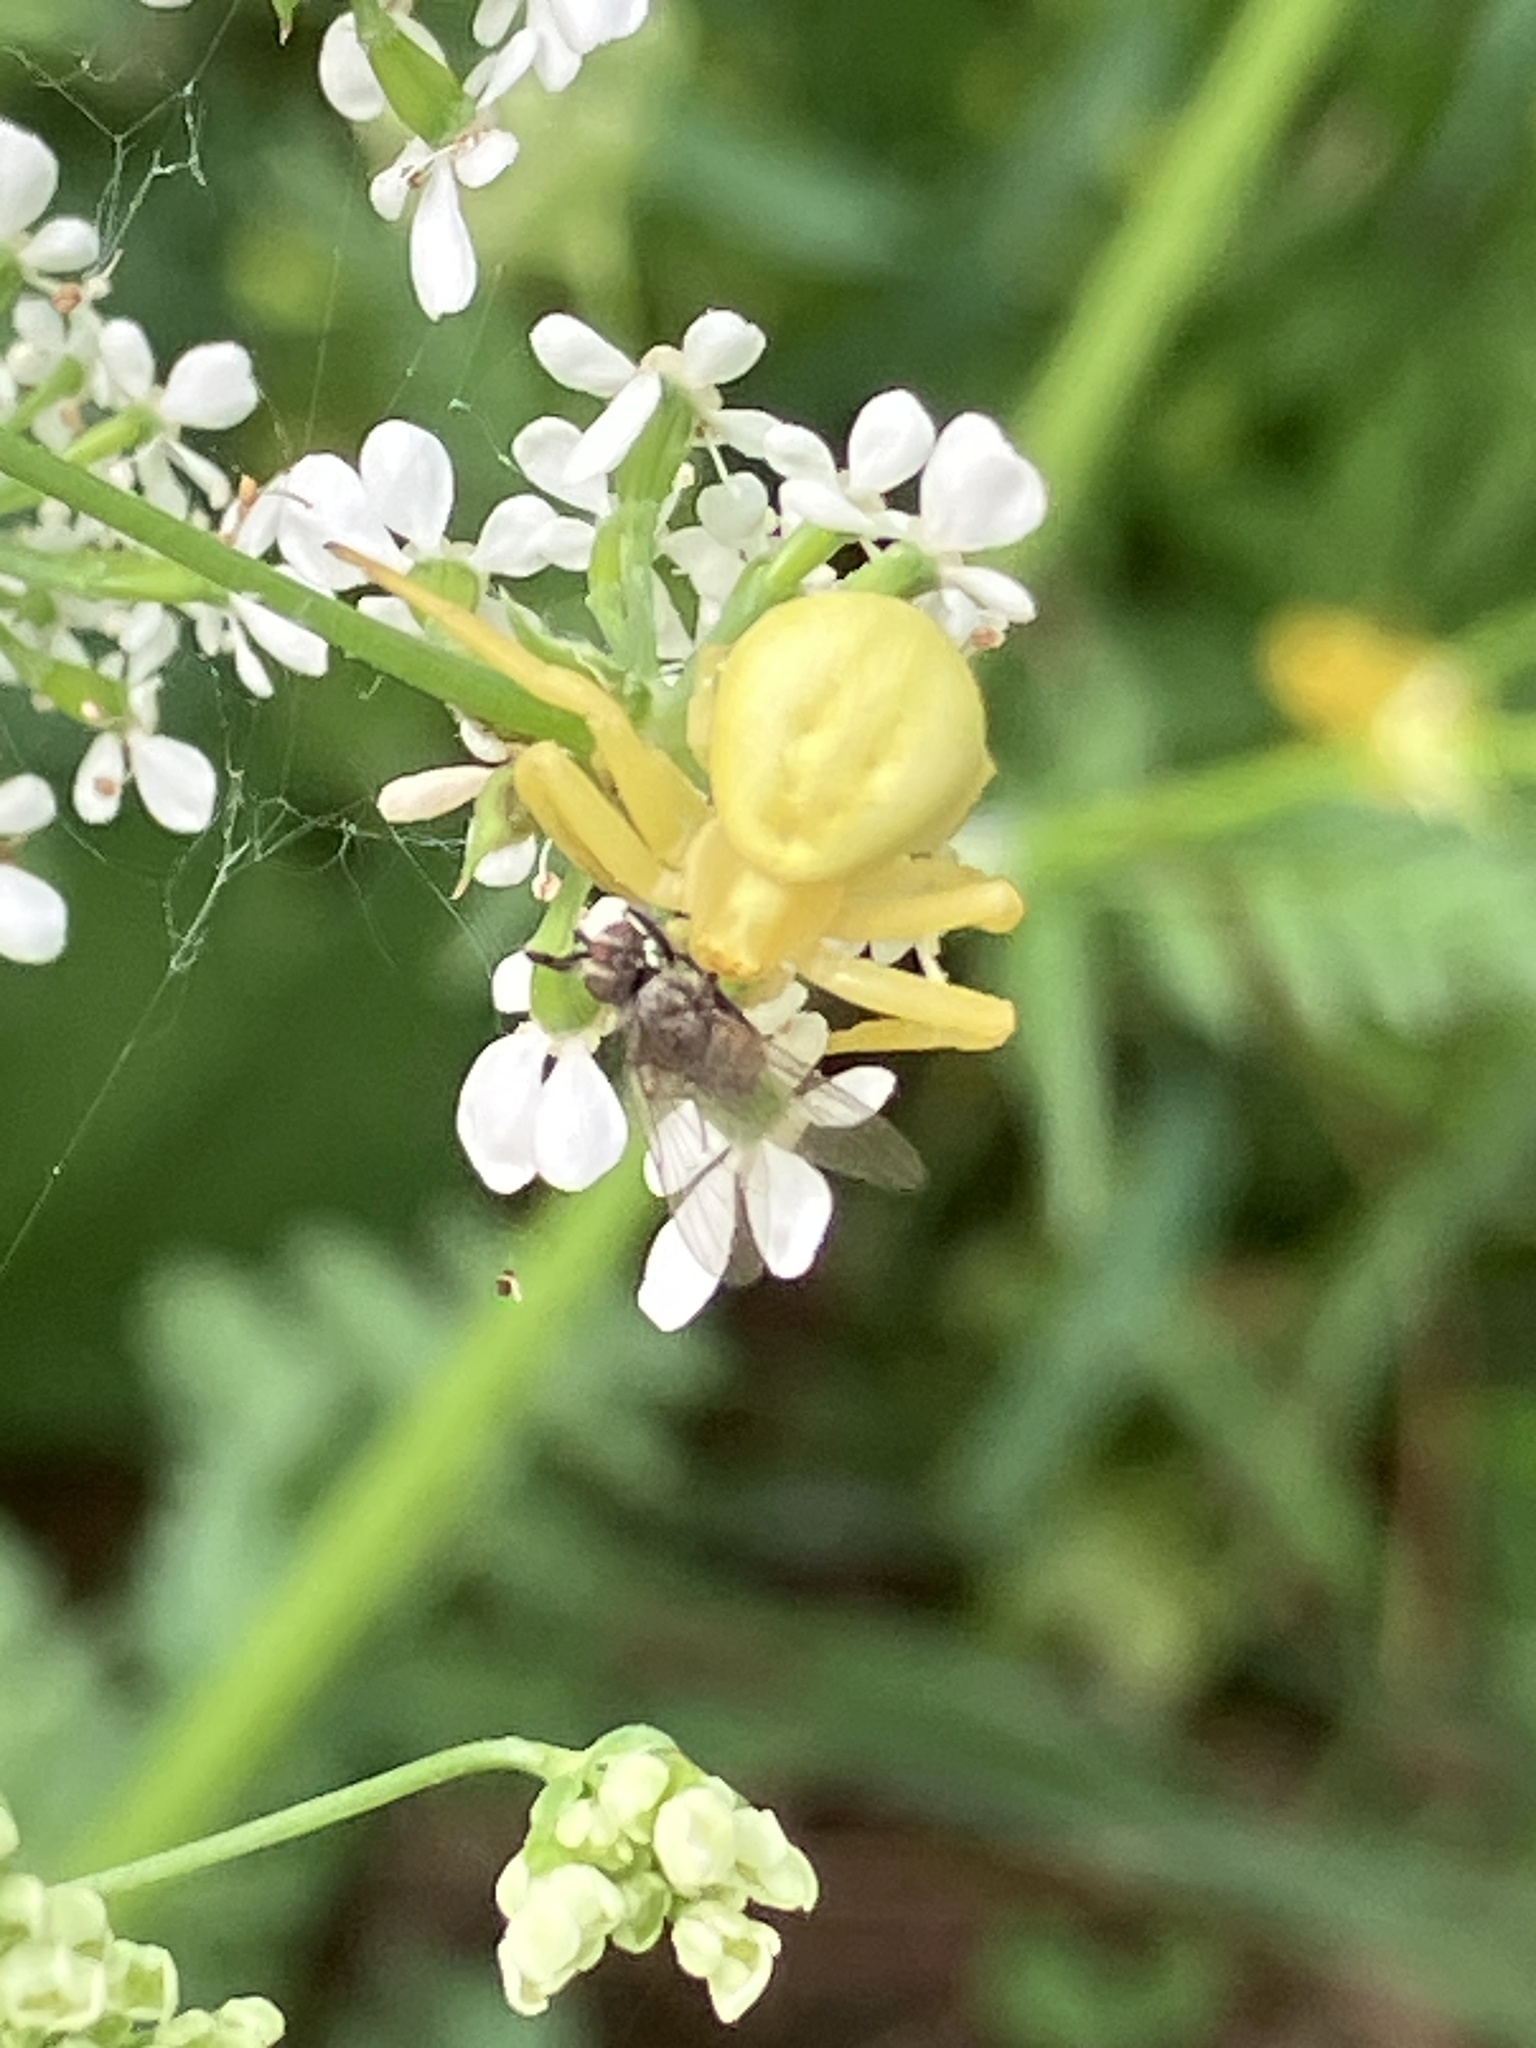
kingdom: Animalia
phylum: Arthropoda
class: Arachnida
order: Araneae
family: Thomisidae
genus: Misumena
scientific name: Misumena vatia
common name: Goldenrod crab spider
